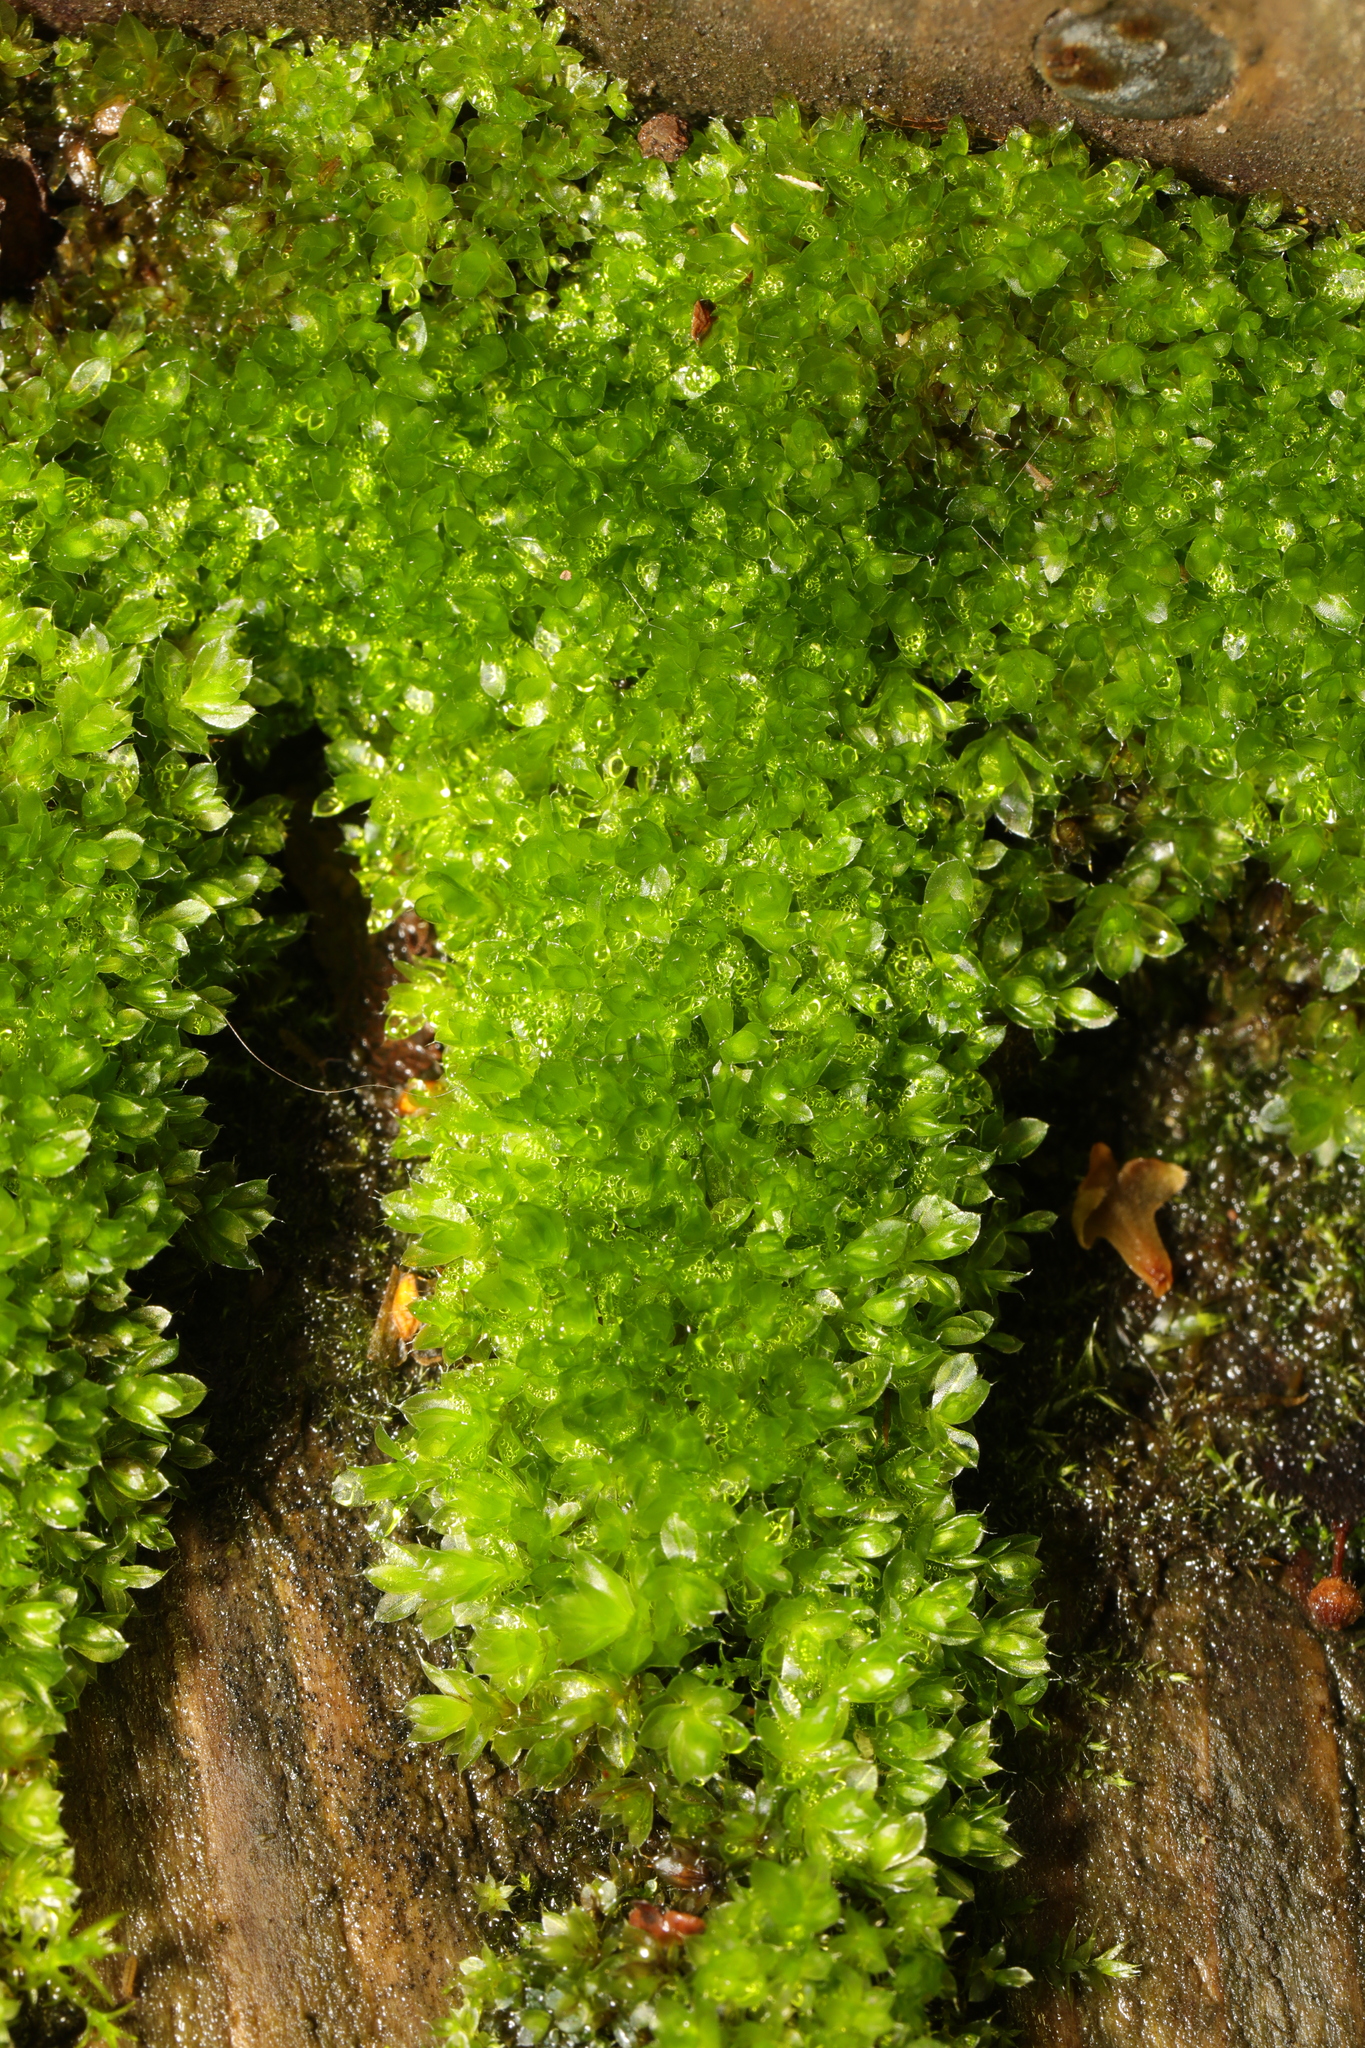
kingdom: Plantae
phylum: Bryophyta
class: Bryopsida
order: Bryales
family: Bryaceae
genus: Rosulabryum
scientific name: Rosulabryum capillare
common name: Capillary thread-moss
